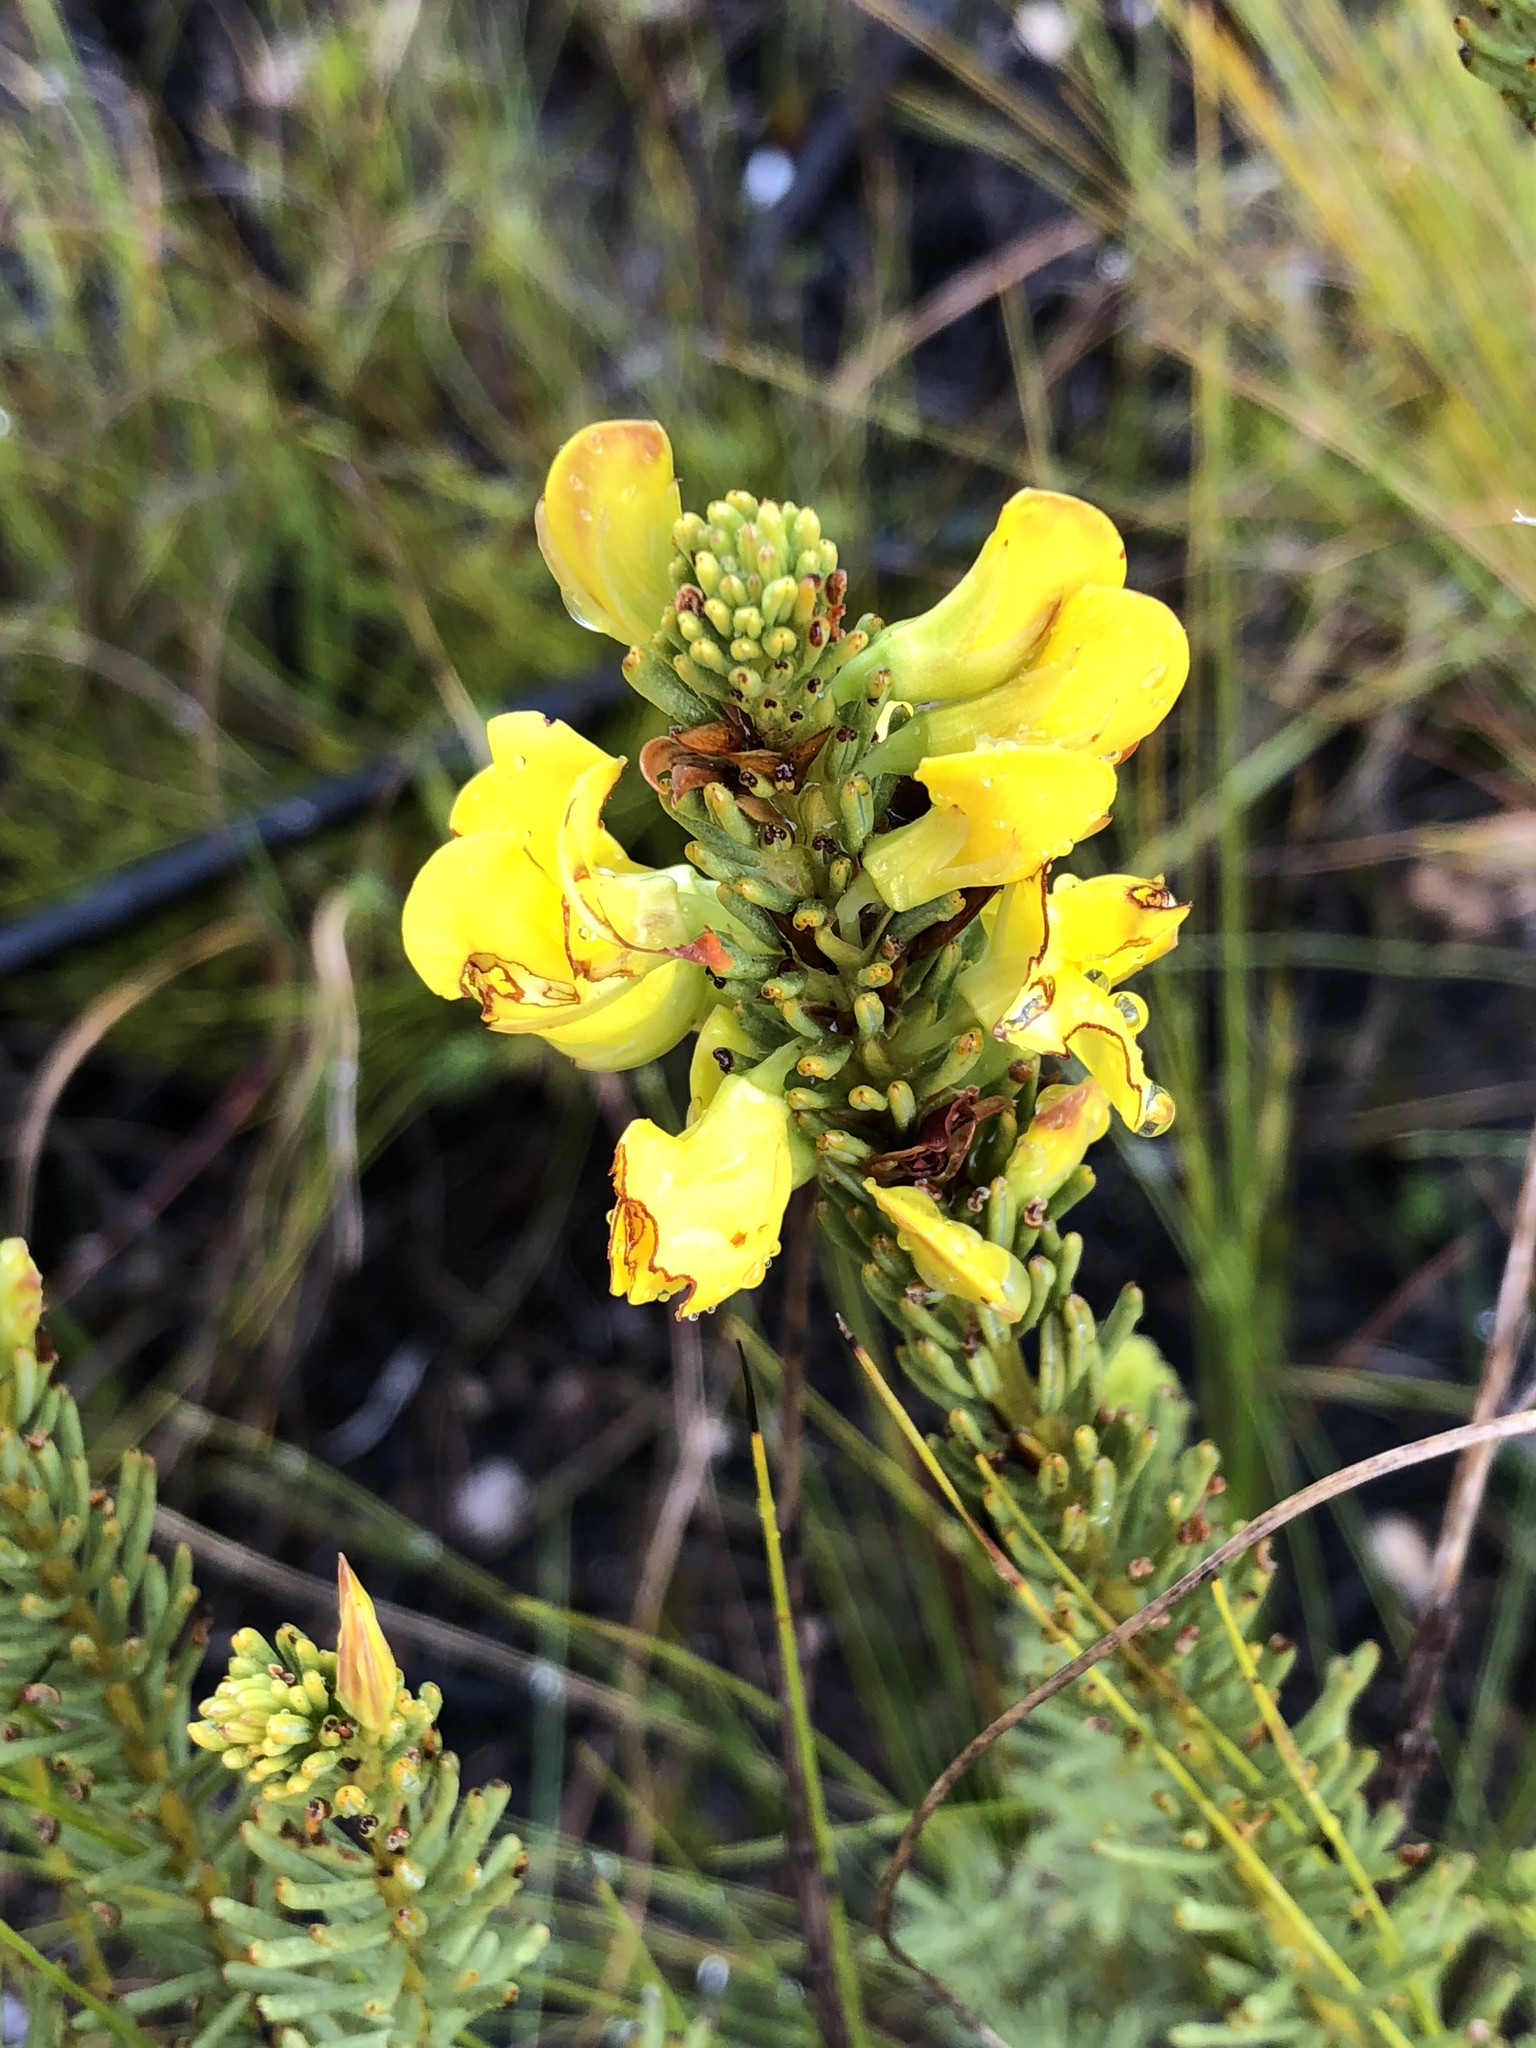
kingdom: Plantae
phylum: Tracheophyta
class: Magnoliopsida
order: Fabales
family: Fabaceae
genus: Cyclopia
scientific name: Cyclopia genistoides
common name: Honeybush tea
